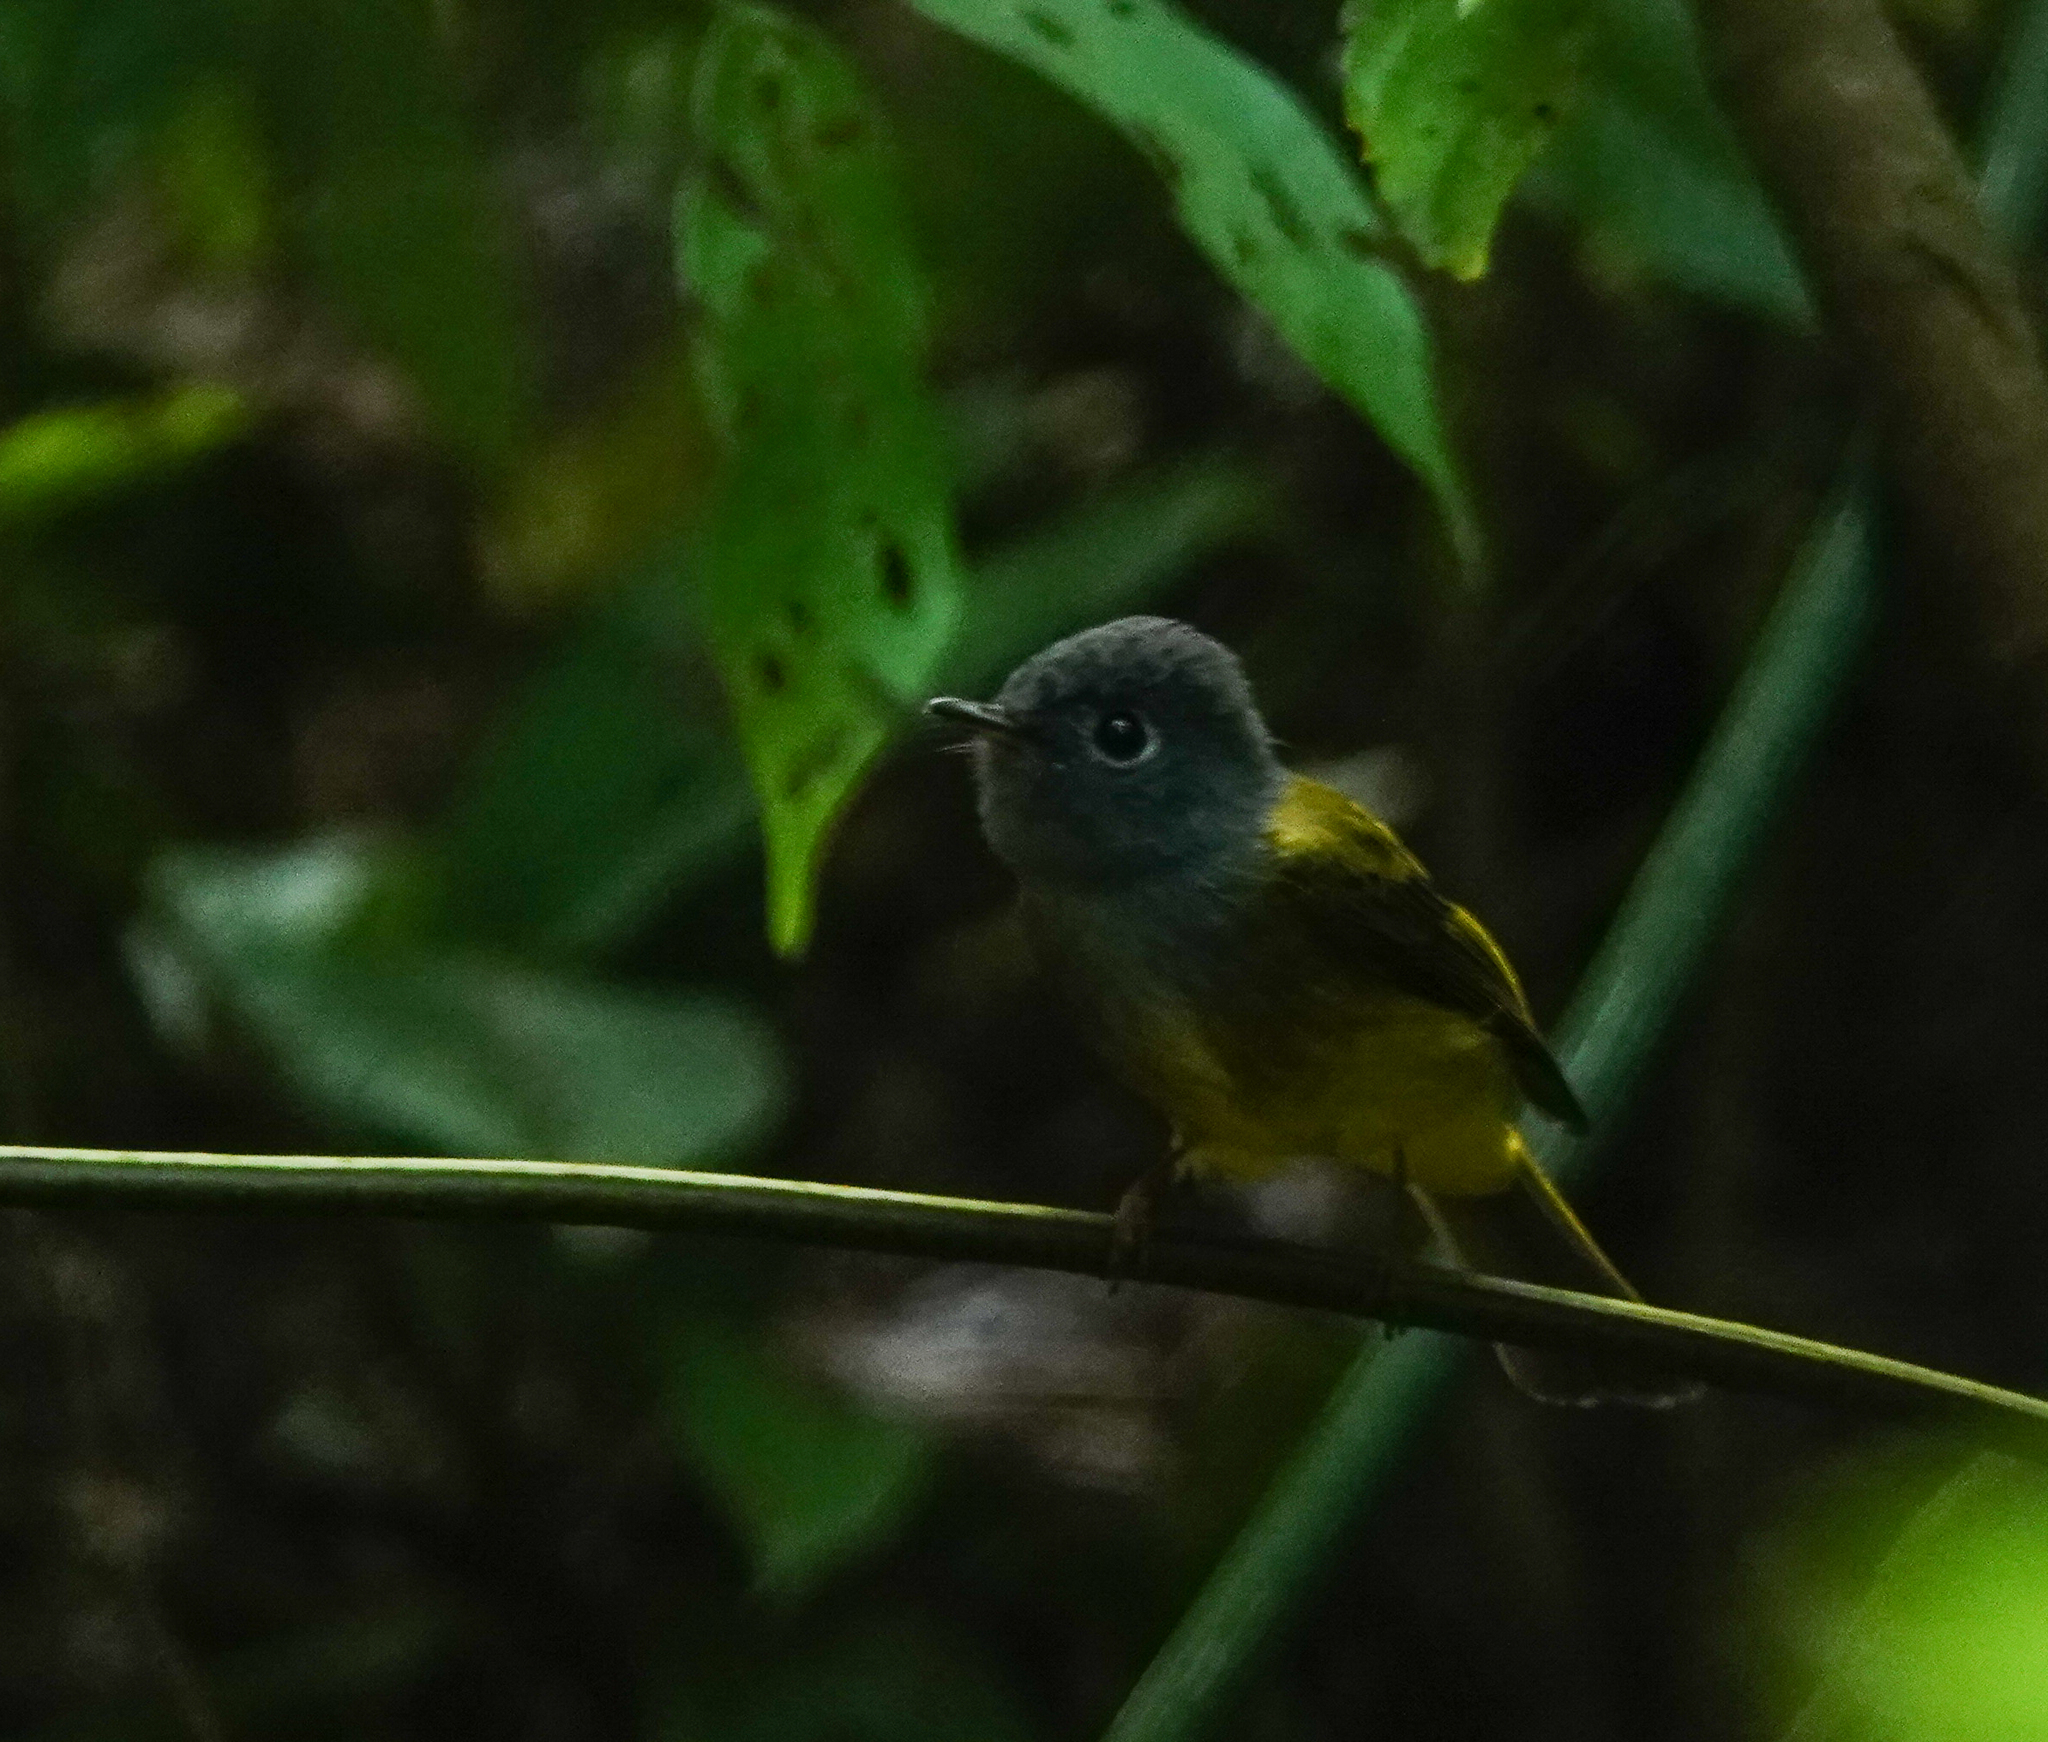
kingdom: Animalia
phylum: Chordata
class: Aves
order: Passeriformes
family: Stenostiridae
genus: Culicicapa
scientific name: Culicicapa ceylonensis
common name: Grey-headed canary-flycatcher
